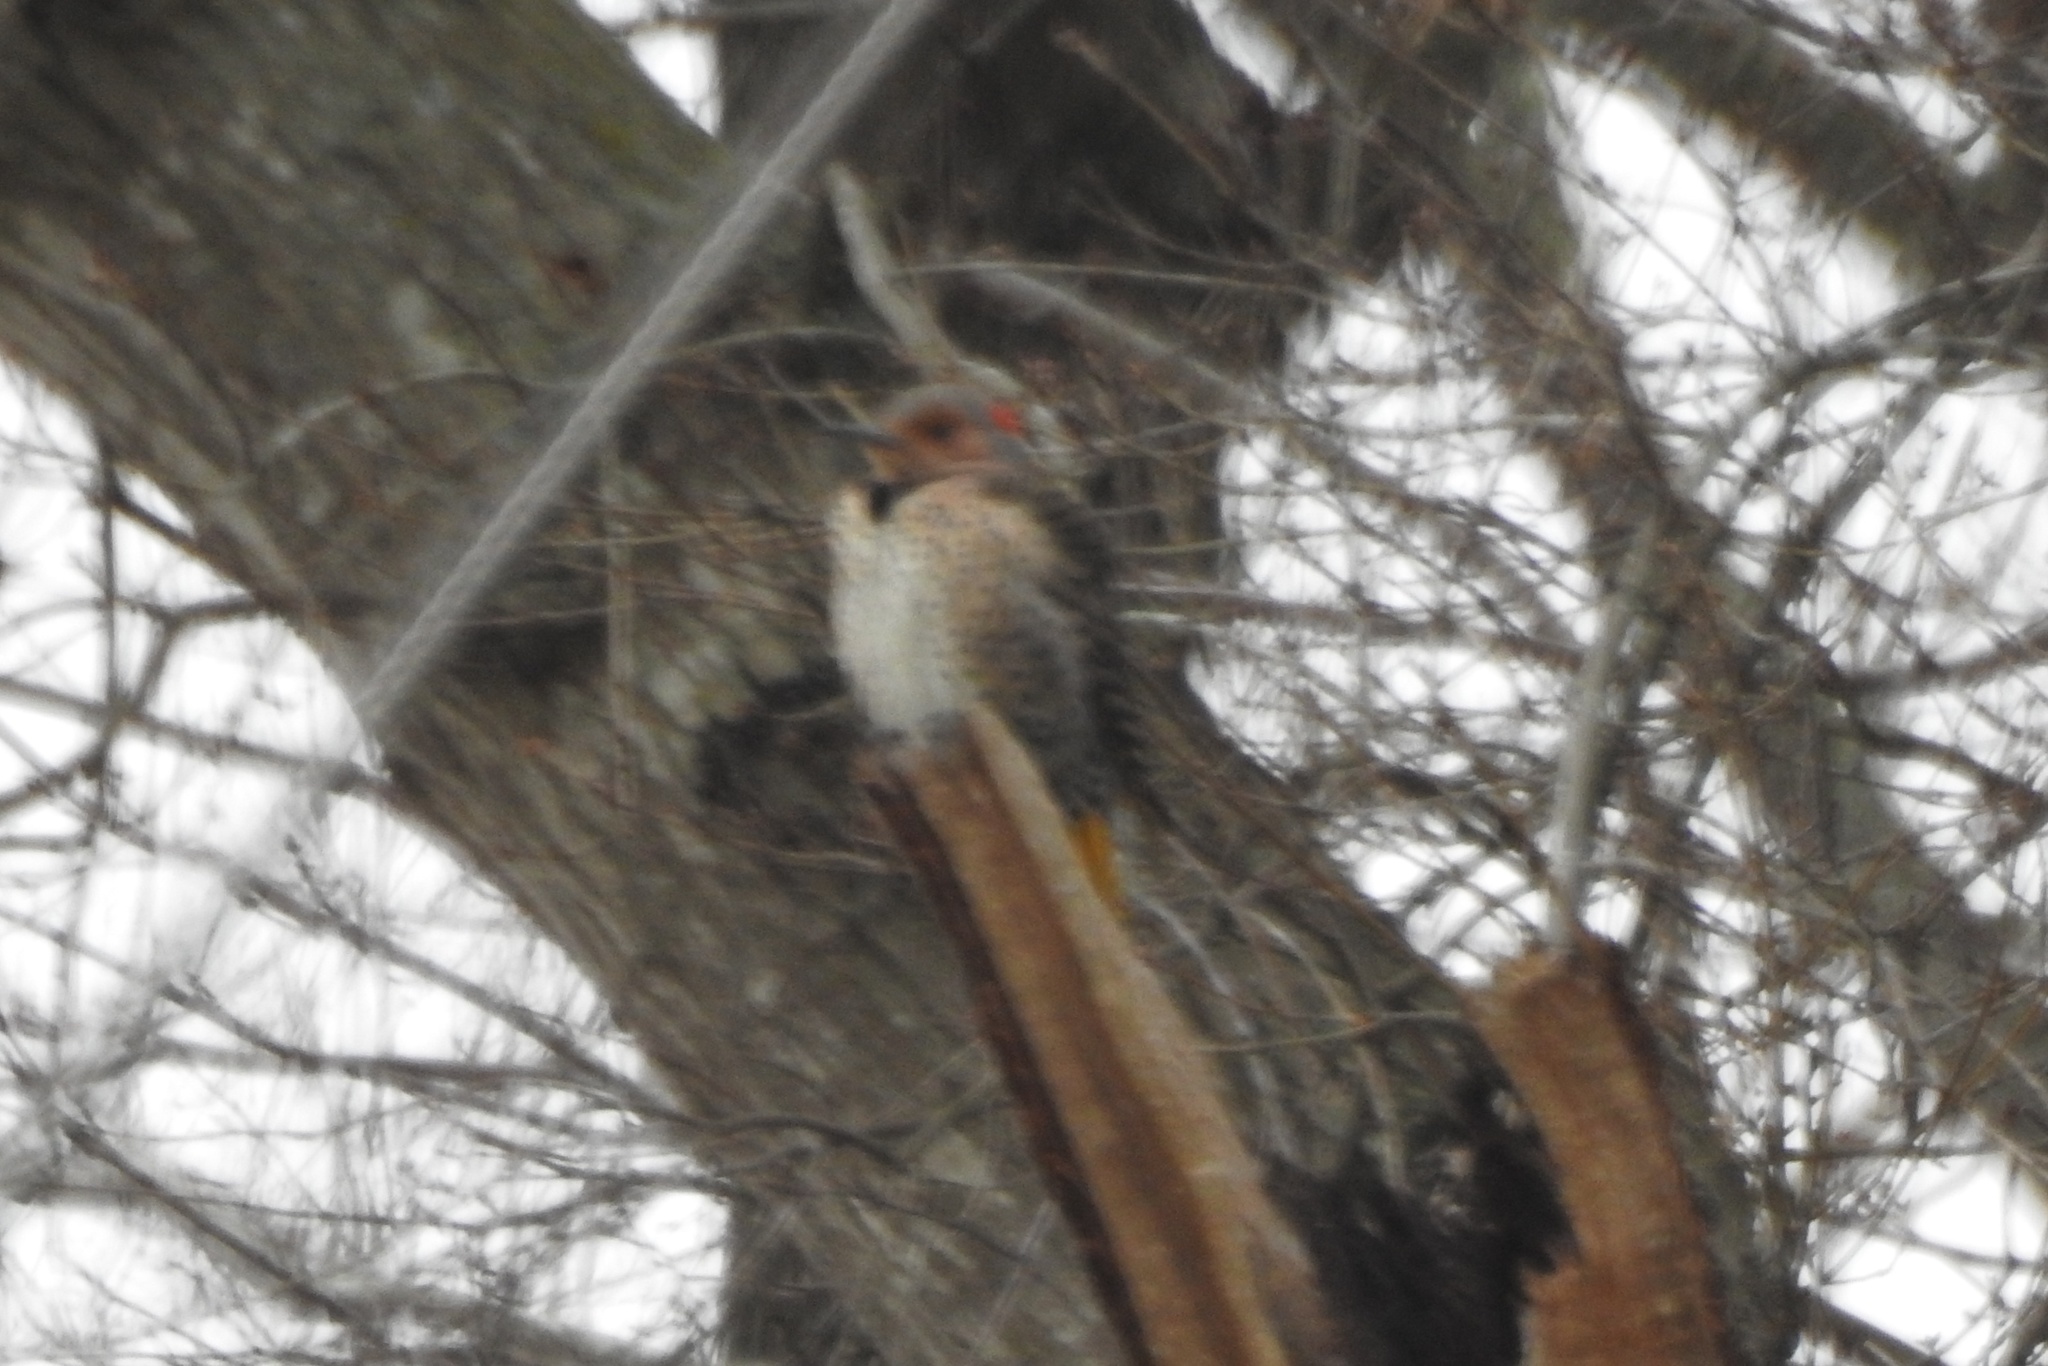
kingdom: Animalia
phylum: Chordata
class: Aves
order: Piciformes
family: Picidae
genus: Colaptes
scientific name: Colaptes auratus
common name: Northern flicker
